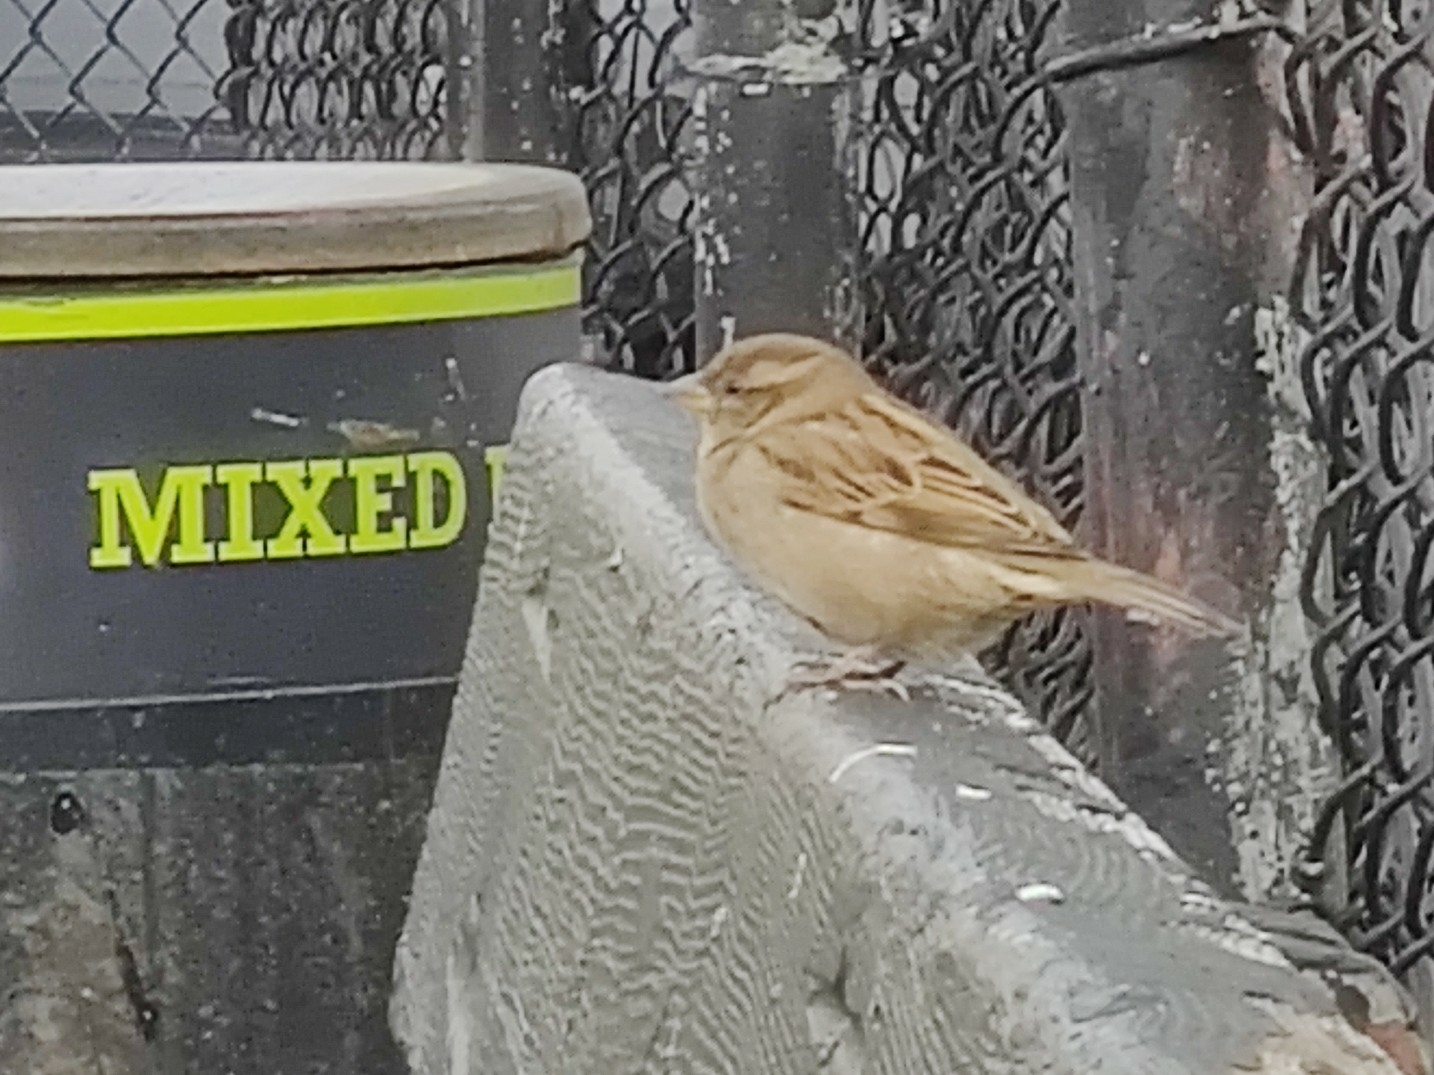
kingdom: Animalia
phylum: Chordata
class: Aves
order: Passeriformes
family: Passeridae
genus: Passer
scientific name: Passer domesticus
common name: House sparrow
